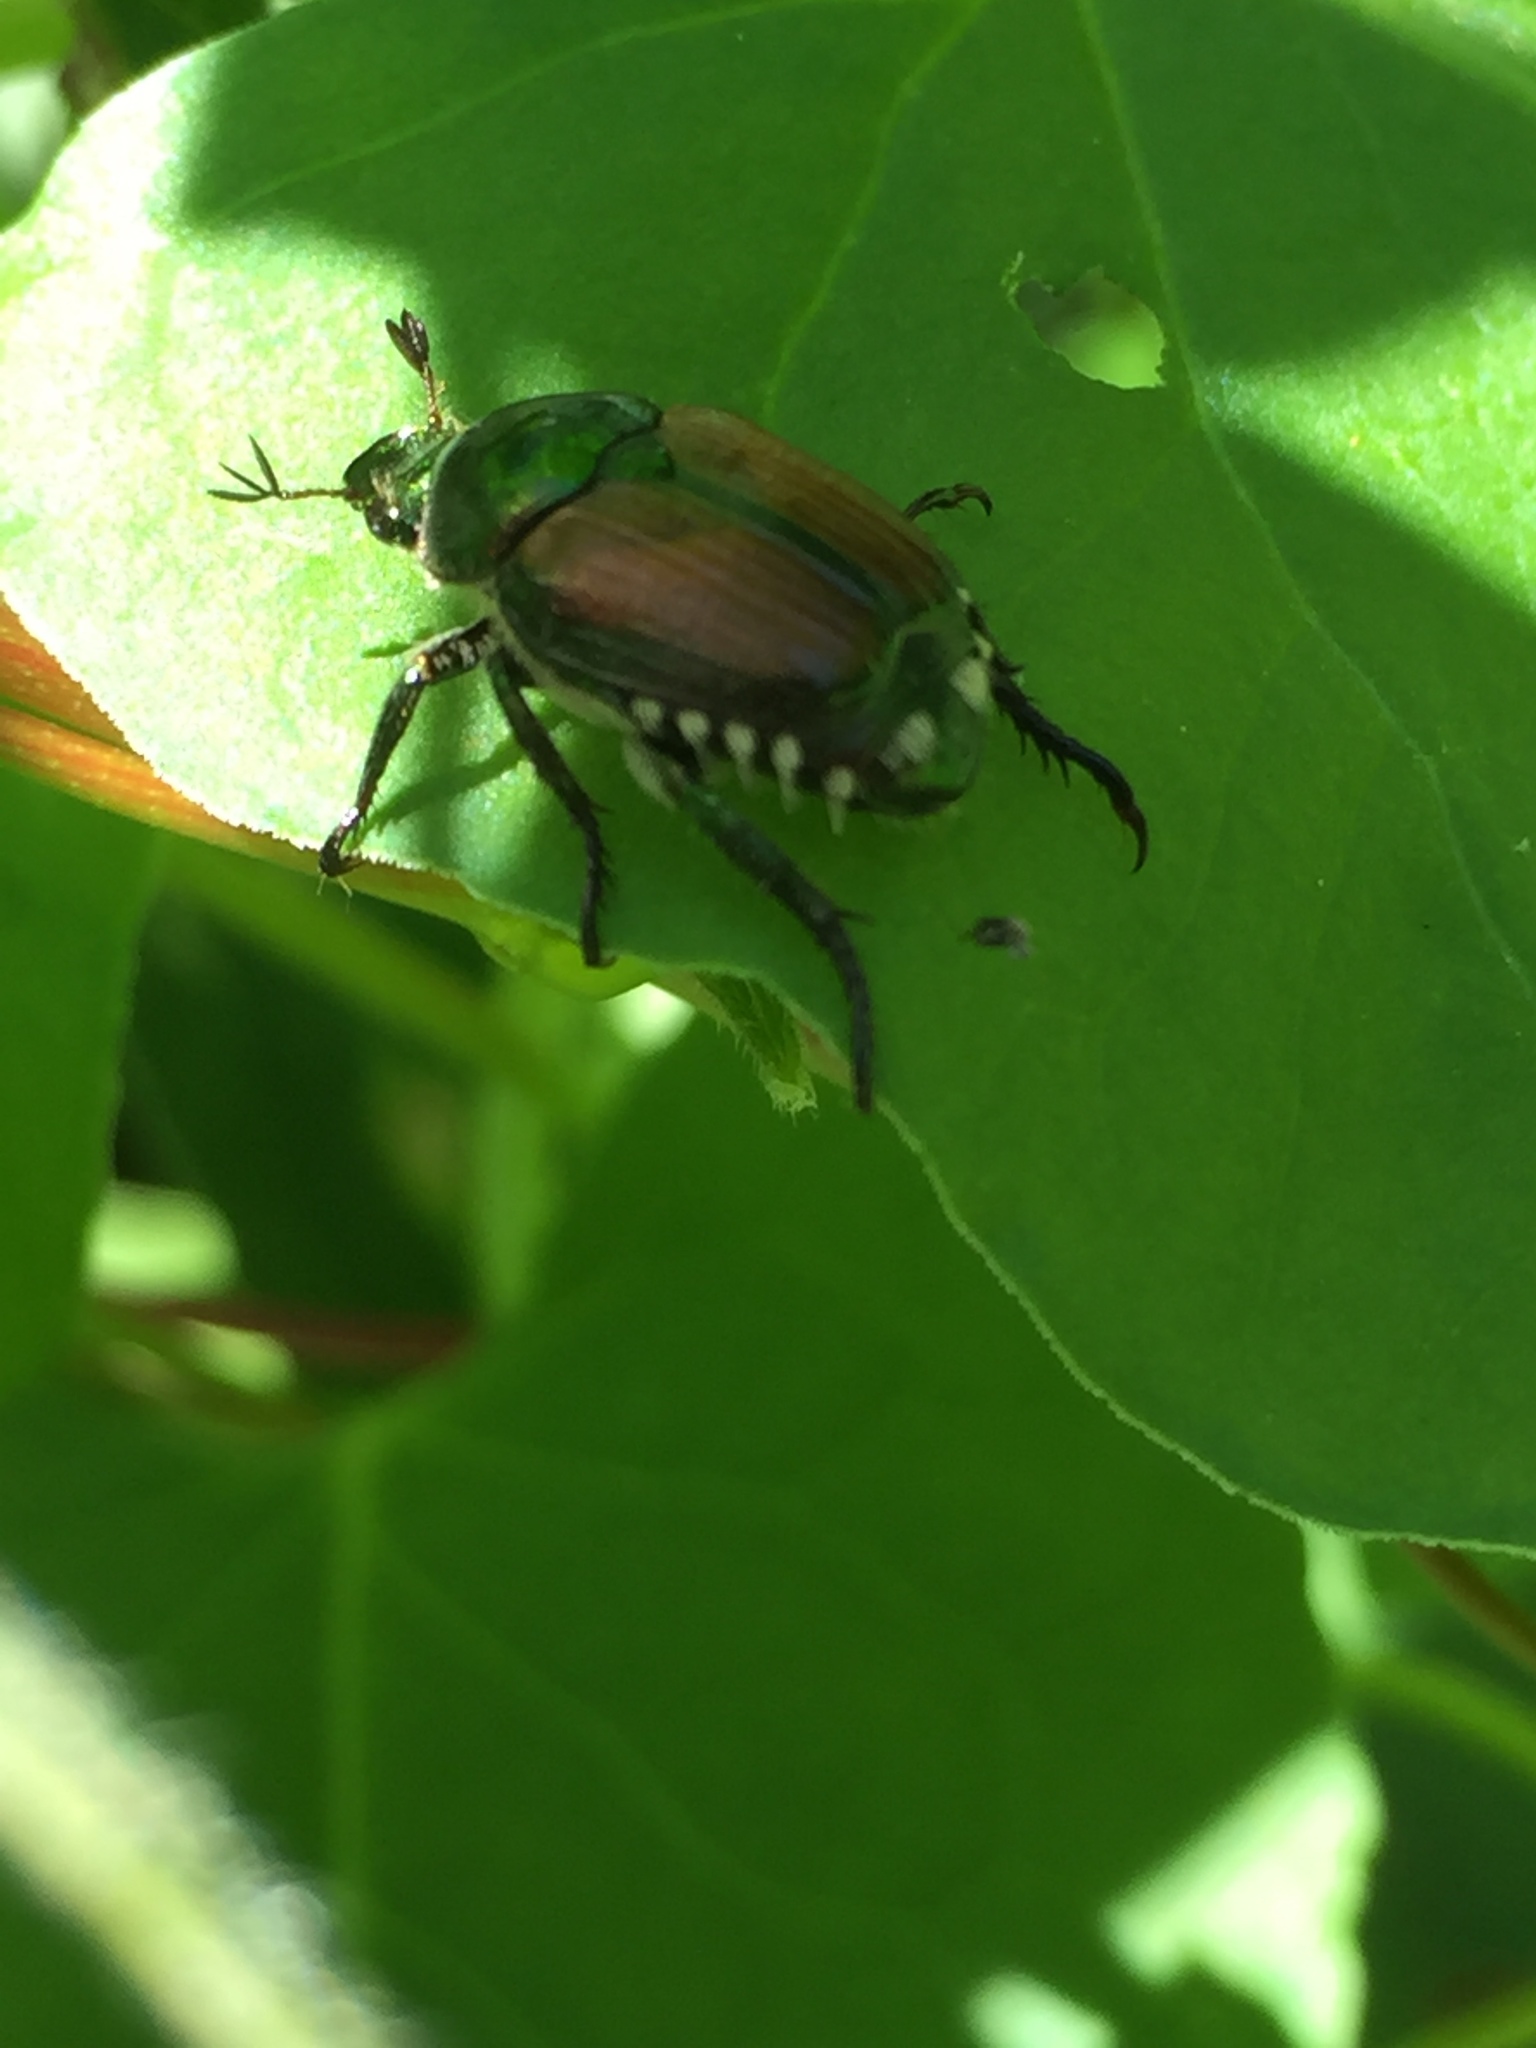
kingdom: Animalia
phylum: Arthropoda
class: Insecta
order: Coleoptera
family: Scarabaeidae
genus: Popillia
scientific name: Popillia japonica
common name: Japanese beetle
